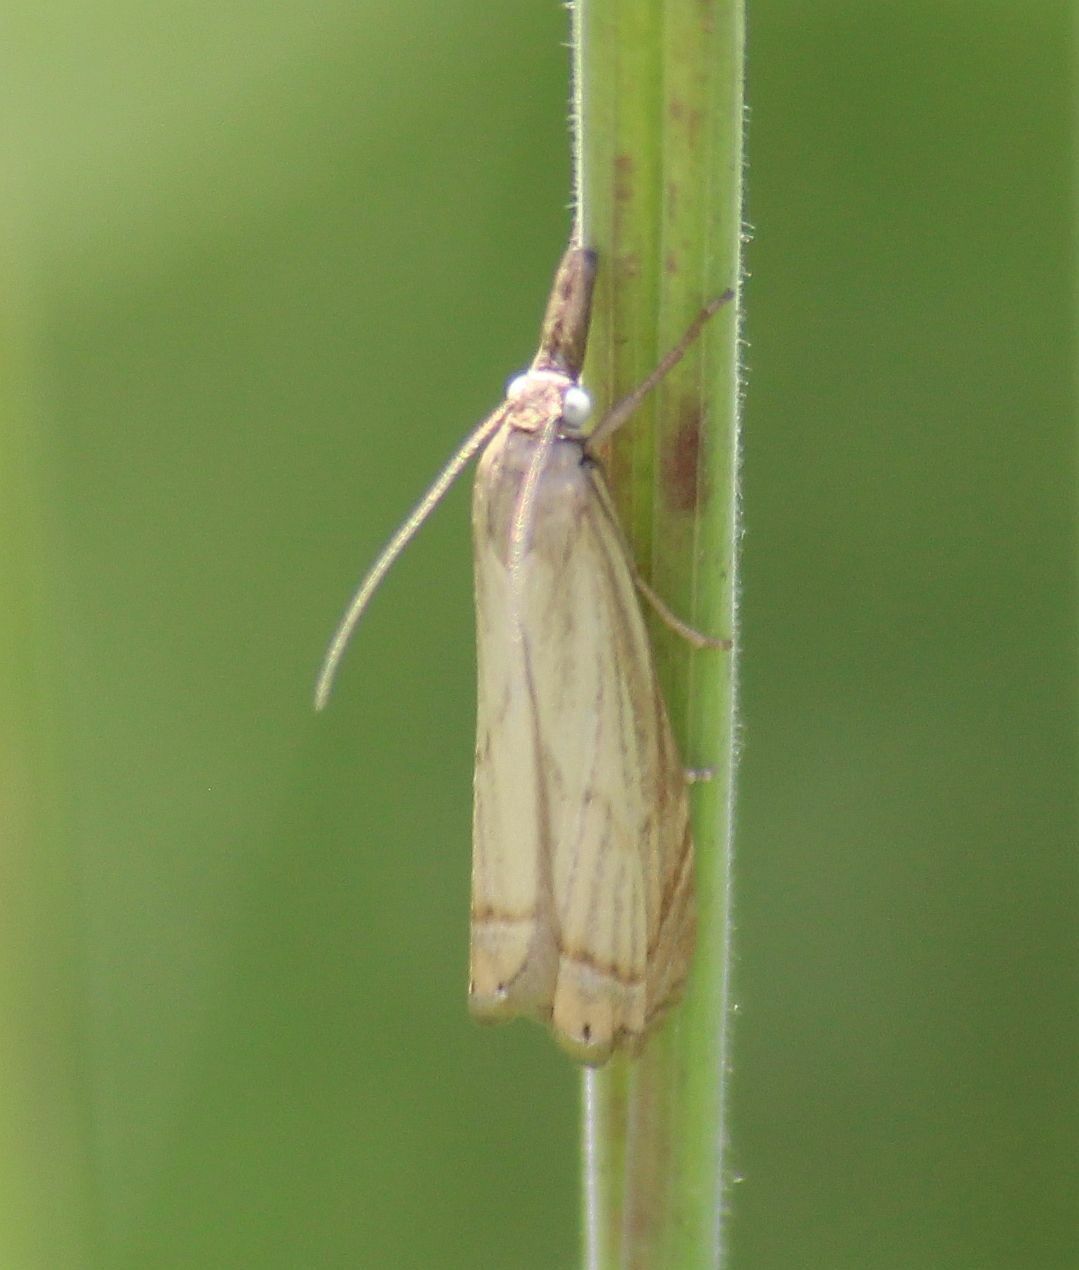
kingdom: Animalia
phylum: Arthropoda
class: Insecta
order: Lepidoptera
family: Crambidae
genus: Chrysoteuchia
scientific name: Chrysoteuchia culmella
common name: Garden grass-veneer
